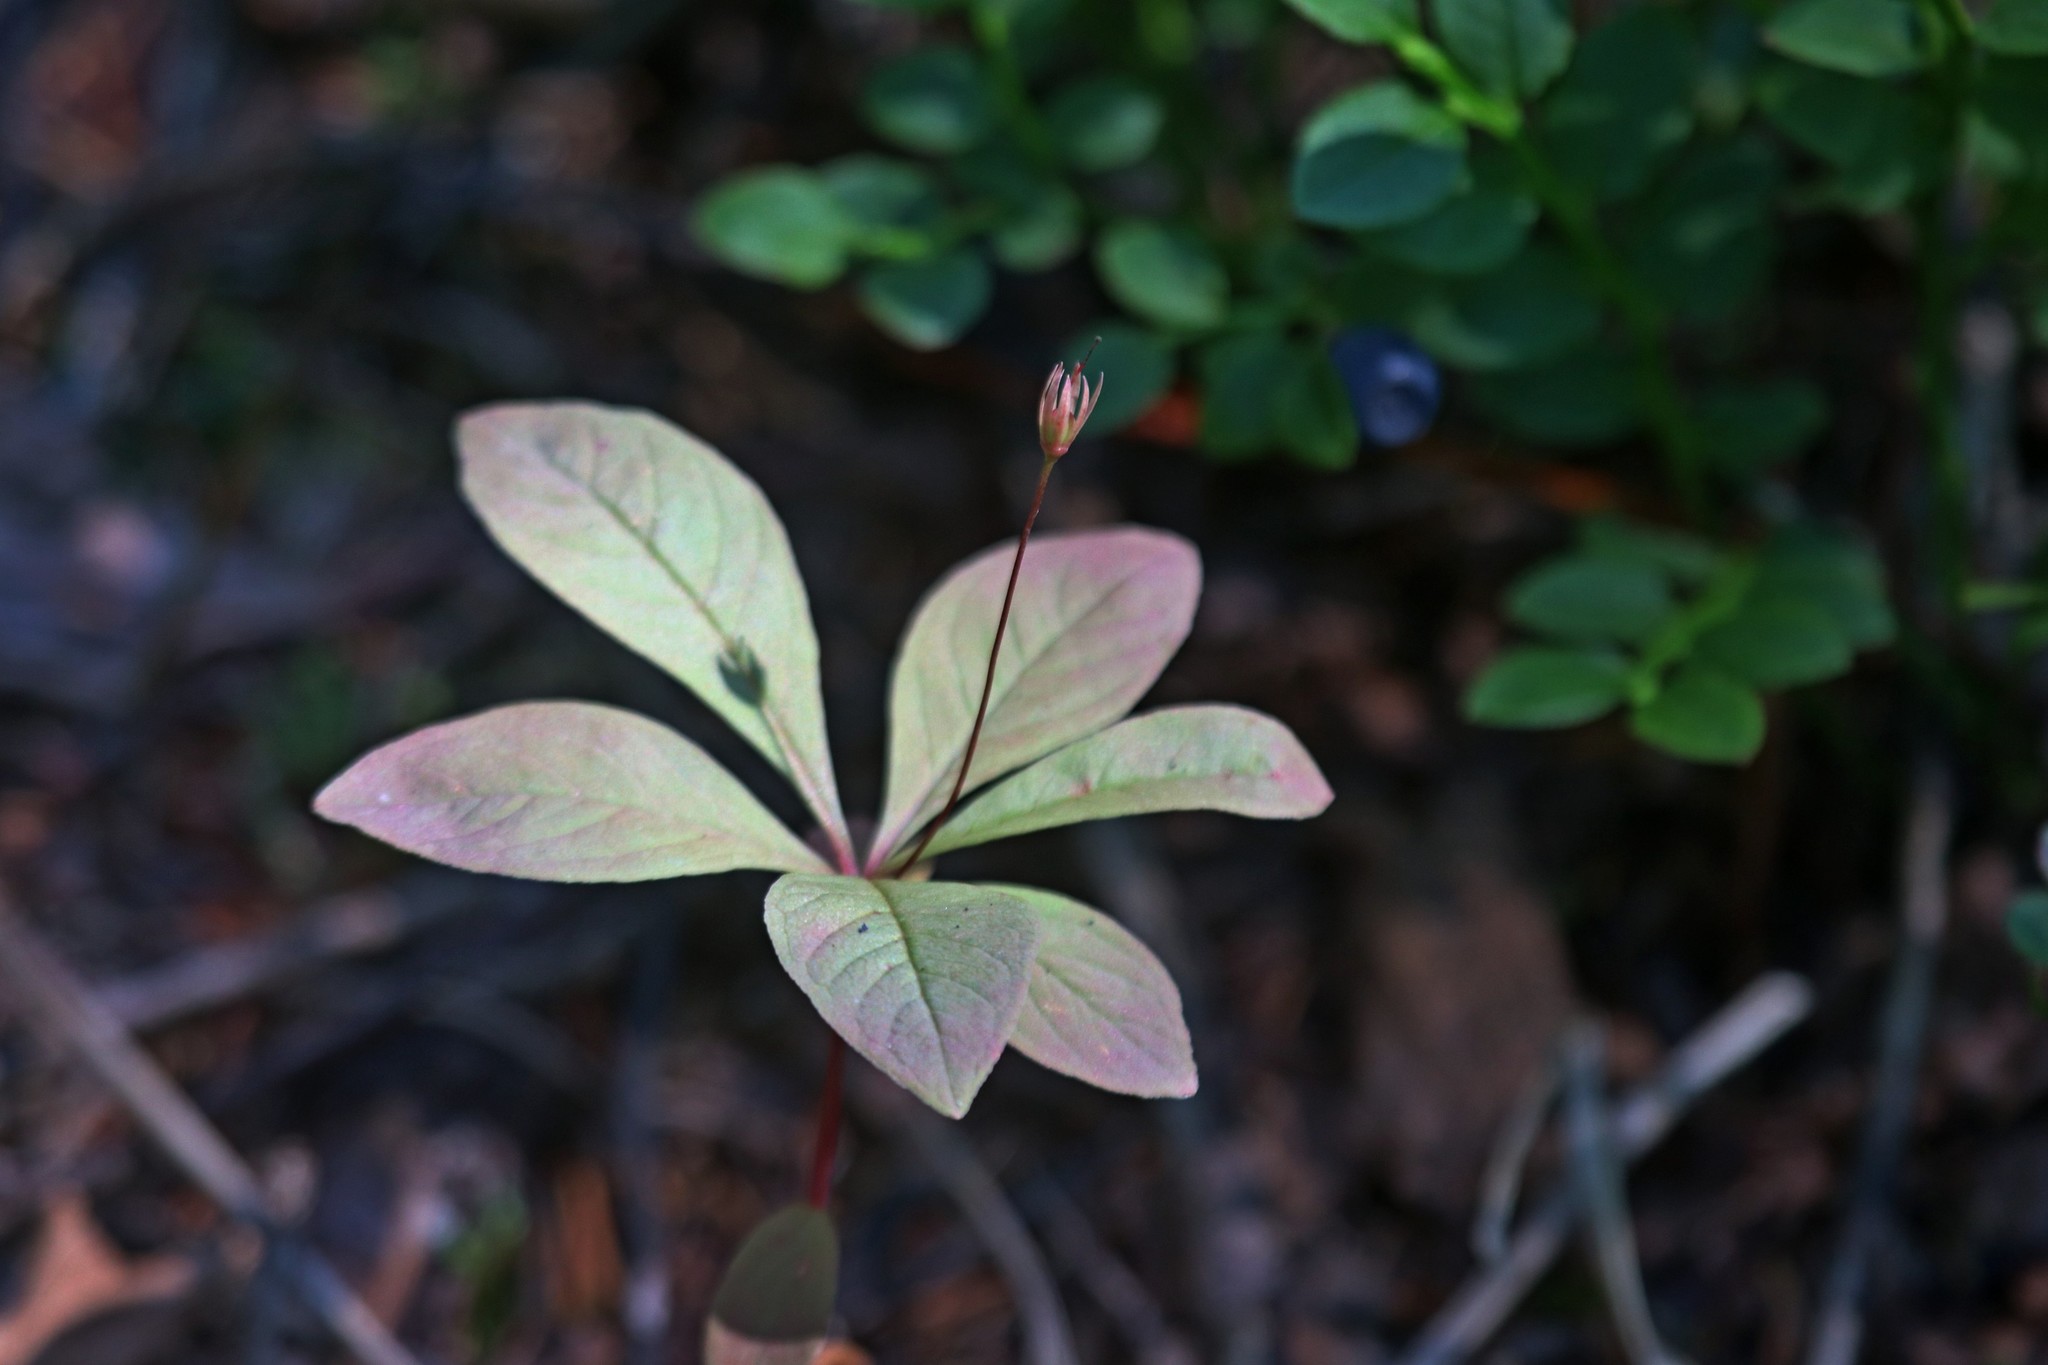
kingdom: Plantae
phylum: Tracheophyta
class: Magnoliopsida
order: Ericales
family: Primulaceae
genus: Lysimachia
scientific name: Lysimachia europaea
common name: Arctic starflower
